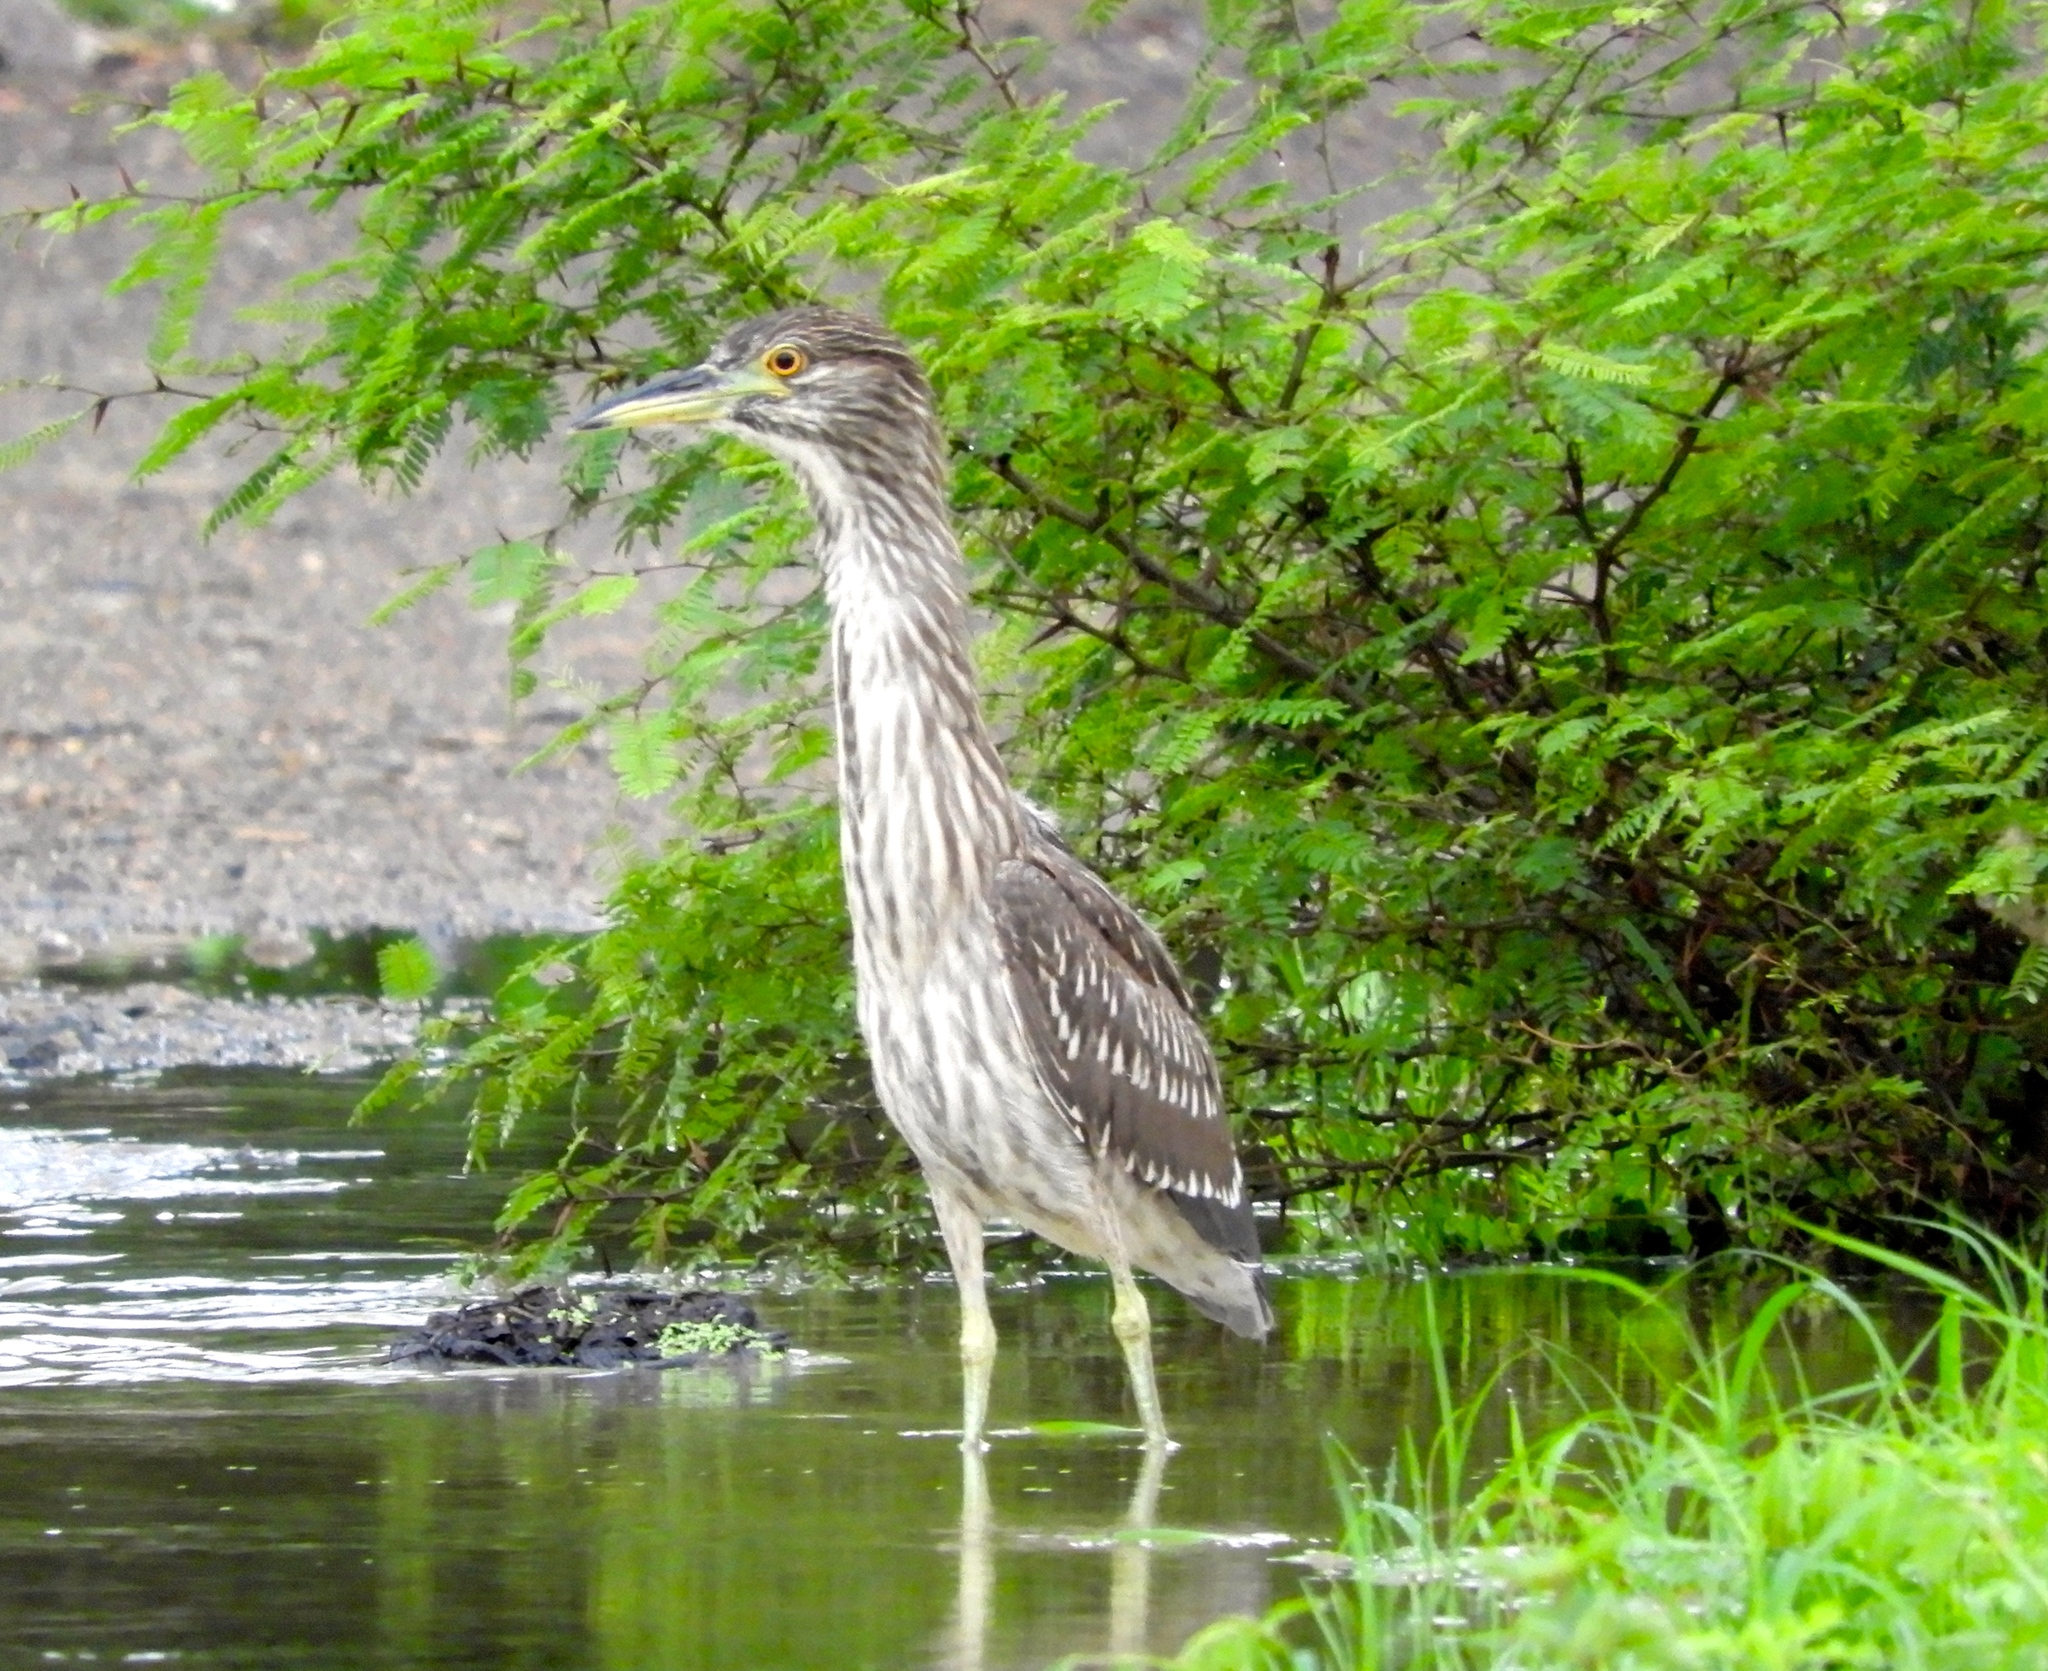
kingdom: Animalia
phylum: Chordata
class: Aves
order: Pelecaniformes
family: Ardeidae
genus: Nycticorax
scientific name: Nycticorax nycticorax
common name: Black-crowned night heron
